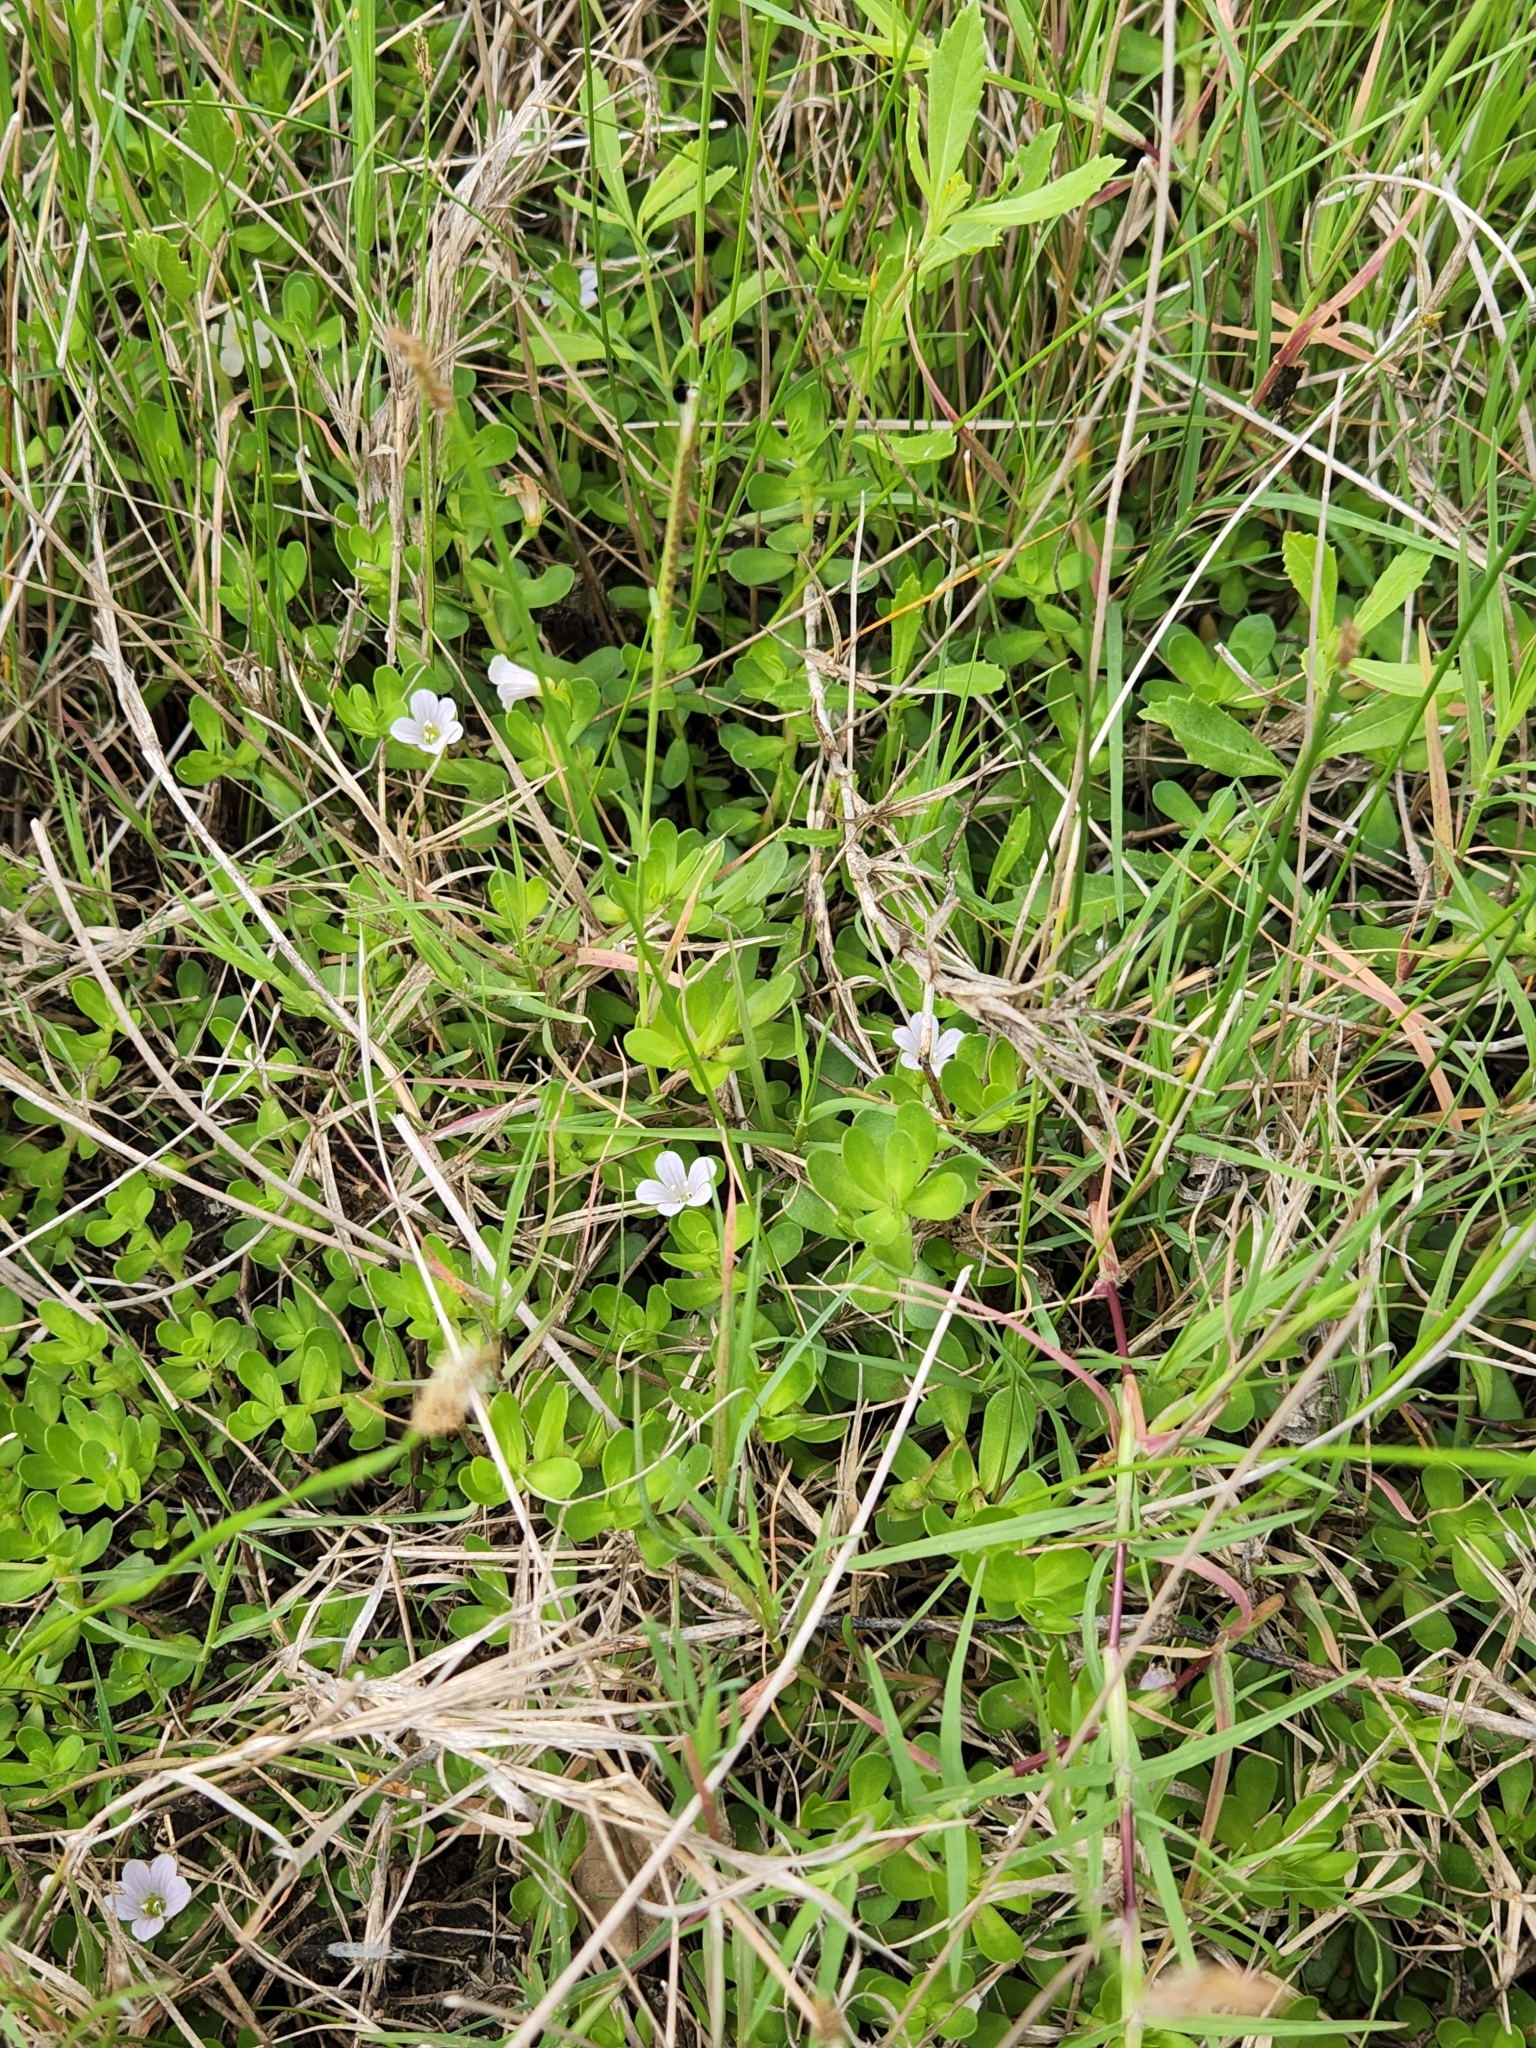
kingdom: Plantae
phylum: Tracheophyta
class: Magnoliopsida
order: Lamiales
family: Plantaginaceae
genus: Bacopa
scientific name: Bacopa monnieri
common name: Indian-pennywort
